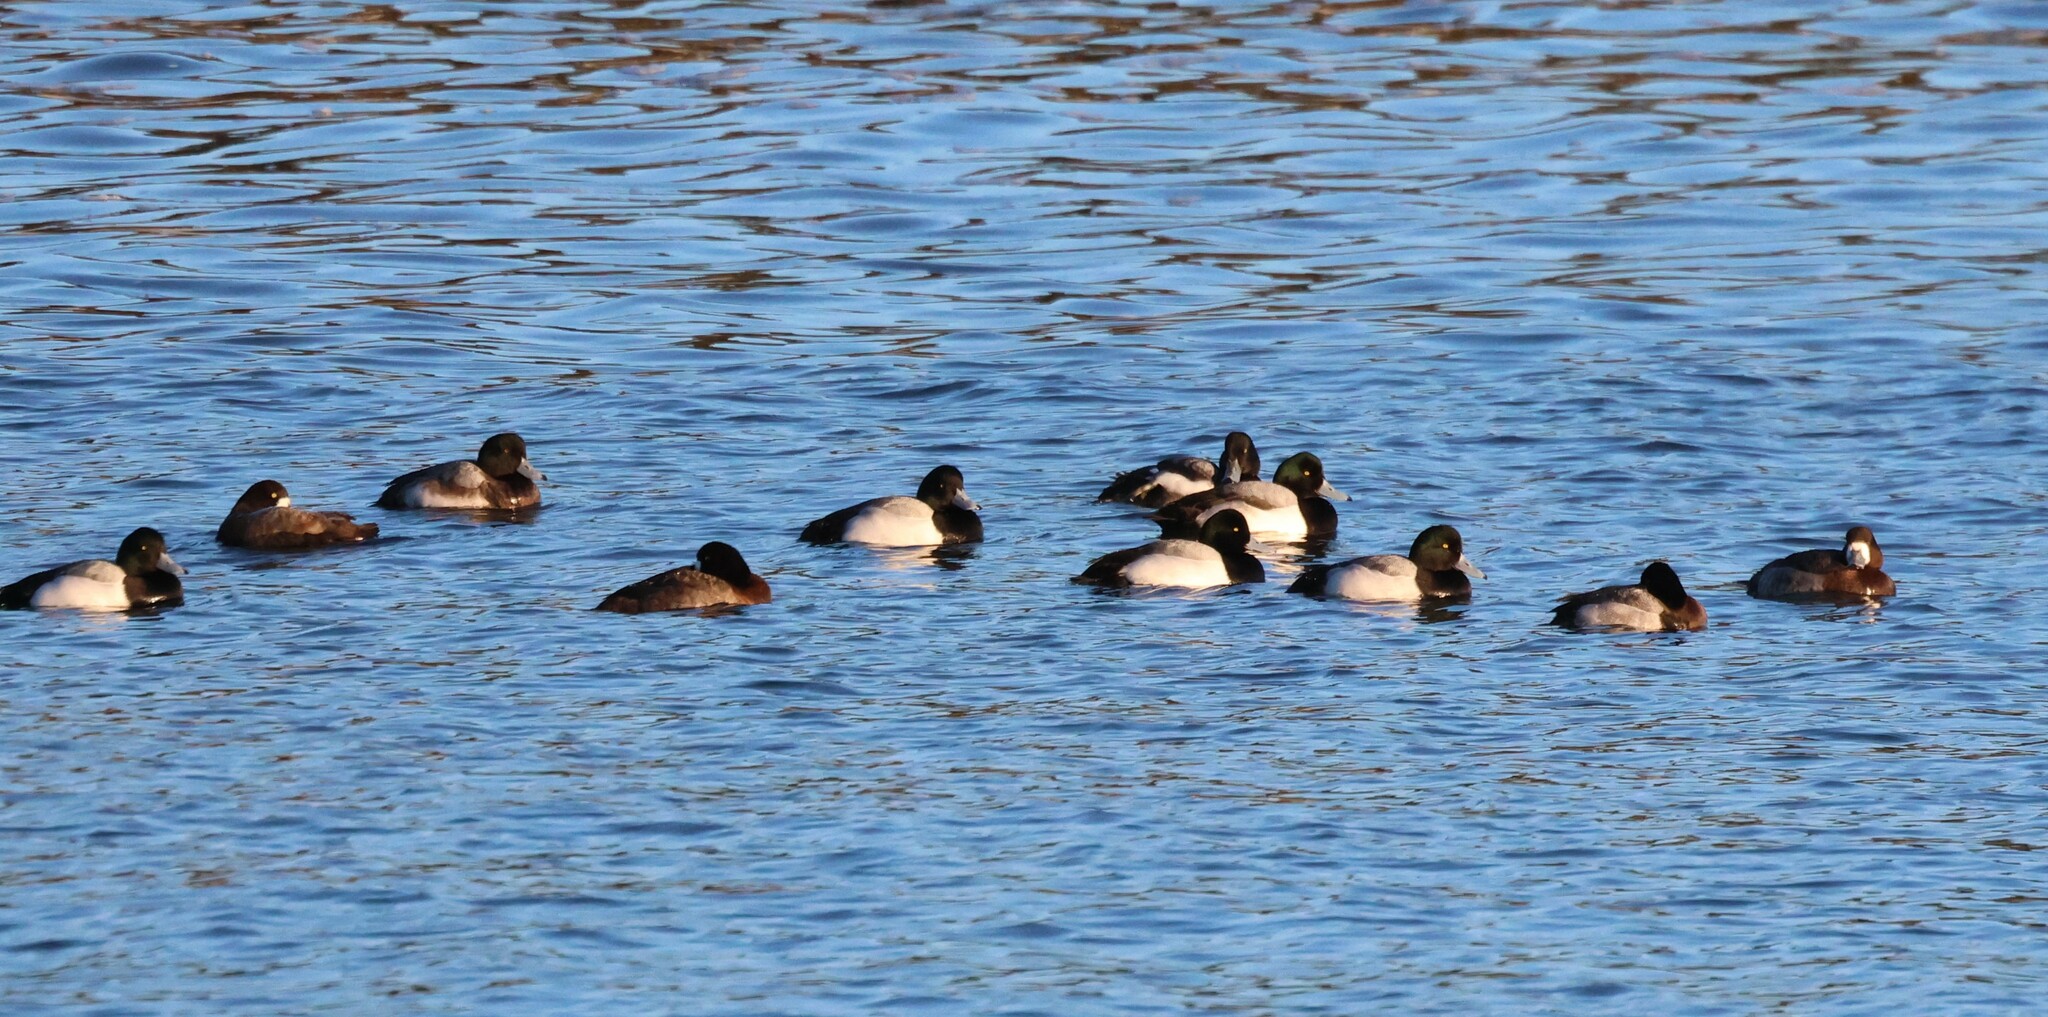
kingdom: Animalia
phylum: Chordata
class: Aves
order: Anseriformes
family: Anatidae
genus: Aythya
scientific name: Aythya marila
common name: Greater scaup
